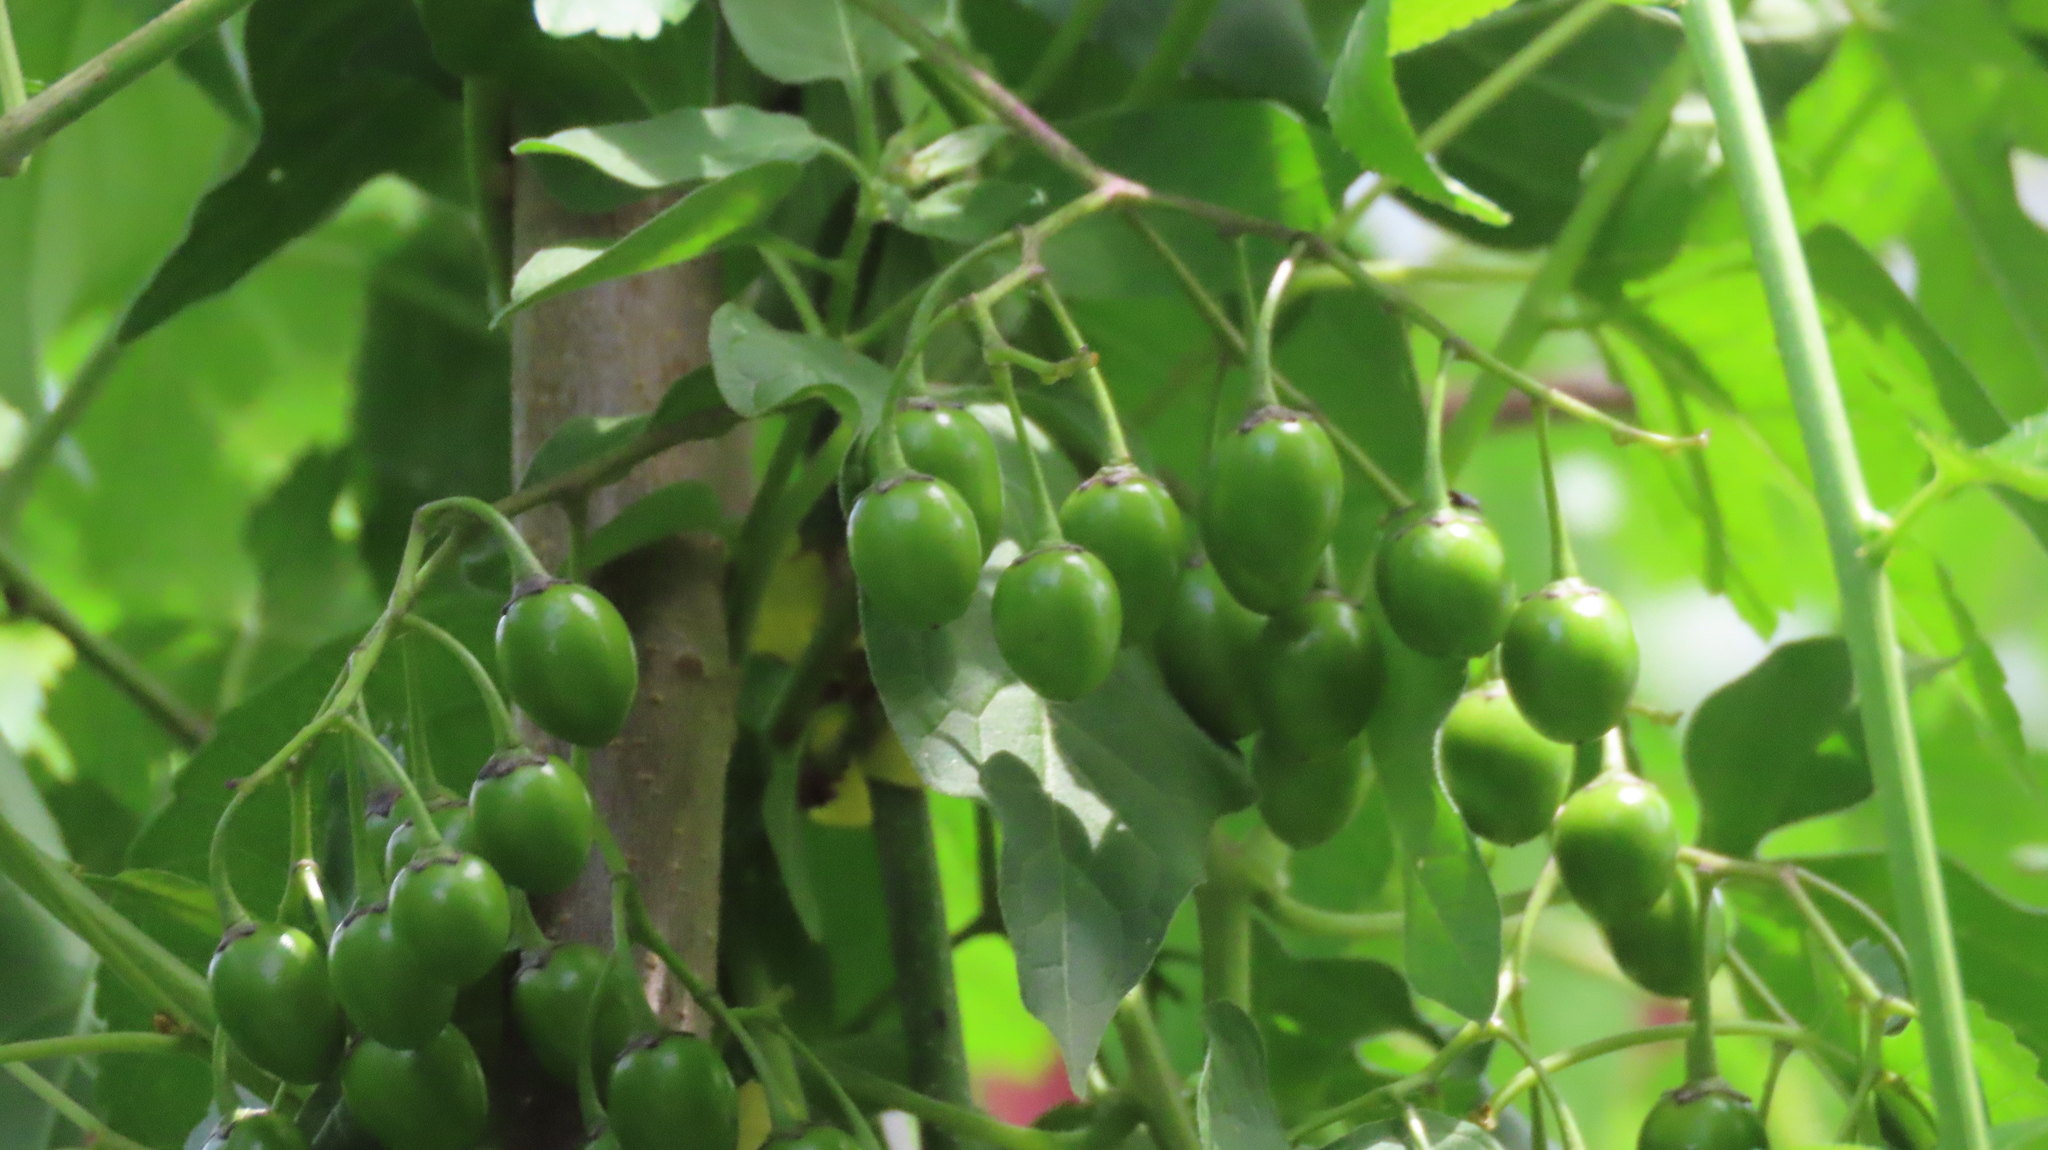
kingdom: Plantae
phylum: Tracheophyta
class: Magnoliopsida
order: Solanales
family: Solanaceae
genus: Solanum
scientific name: Solanum dulcamara
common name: Climbing nightshade
